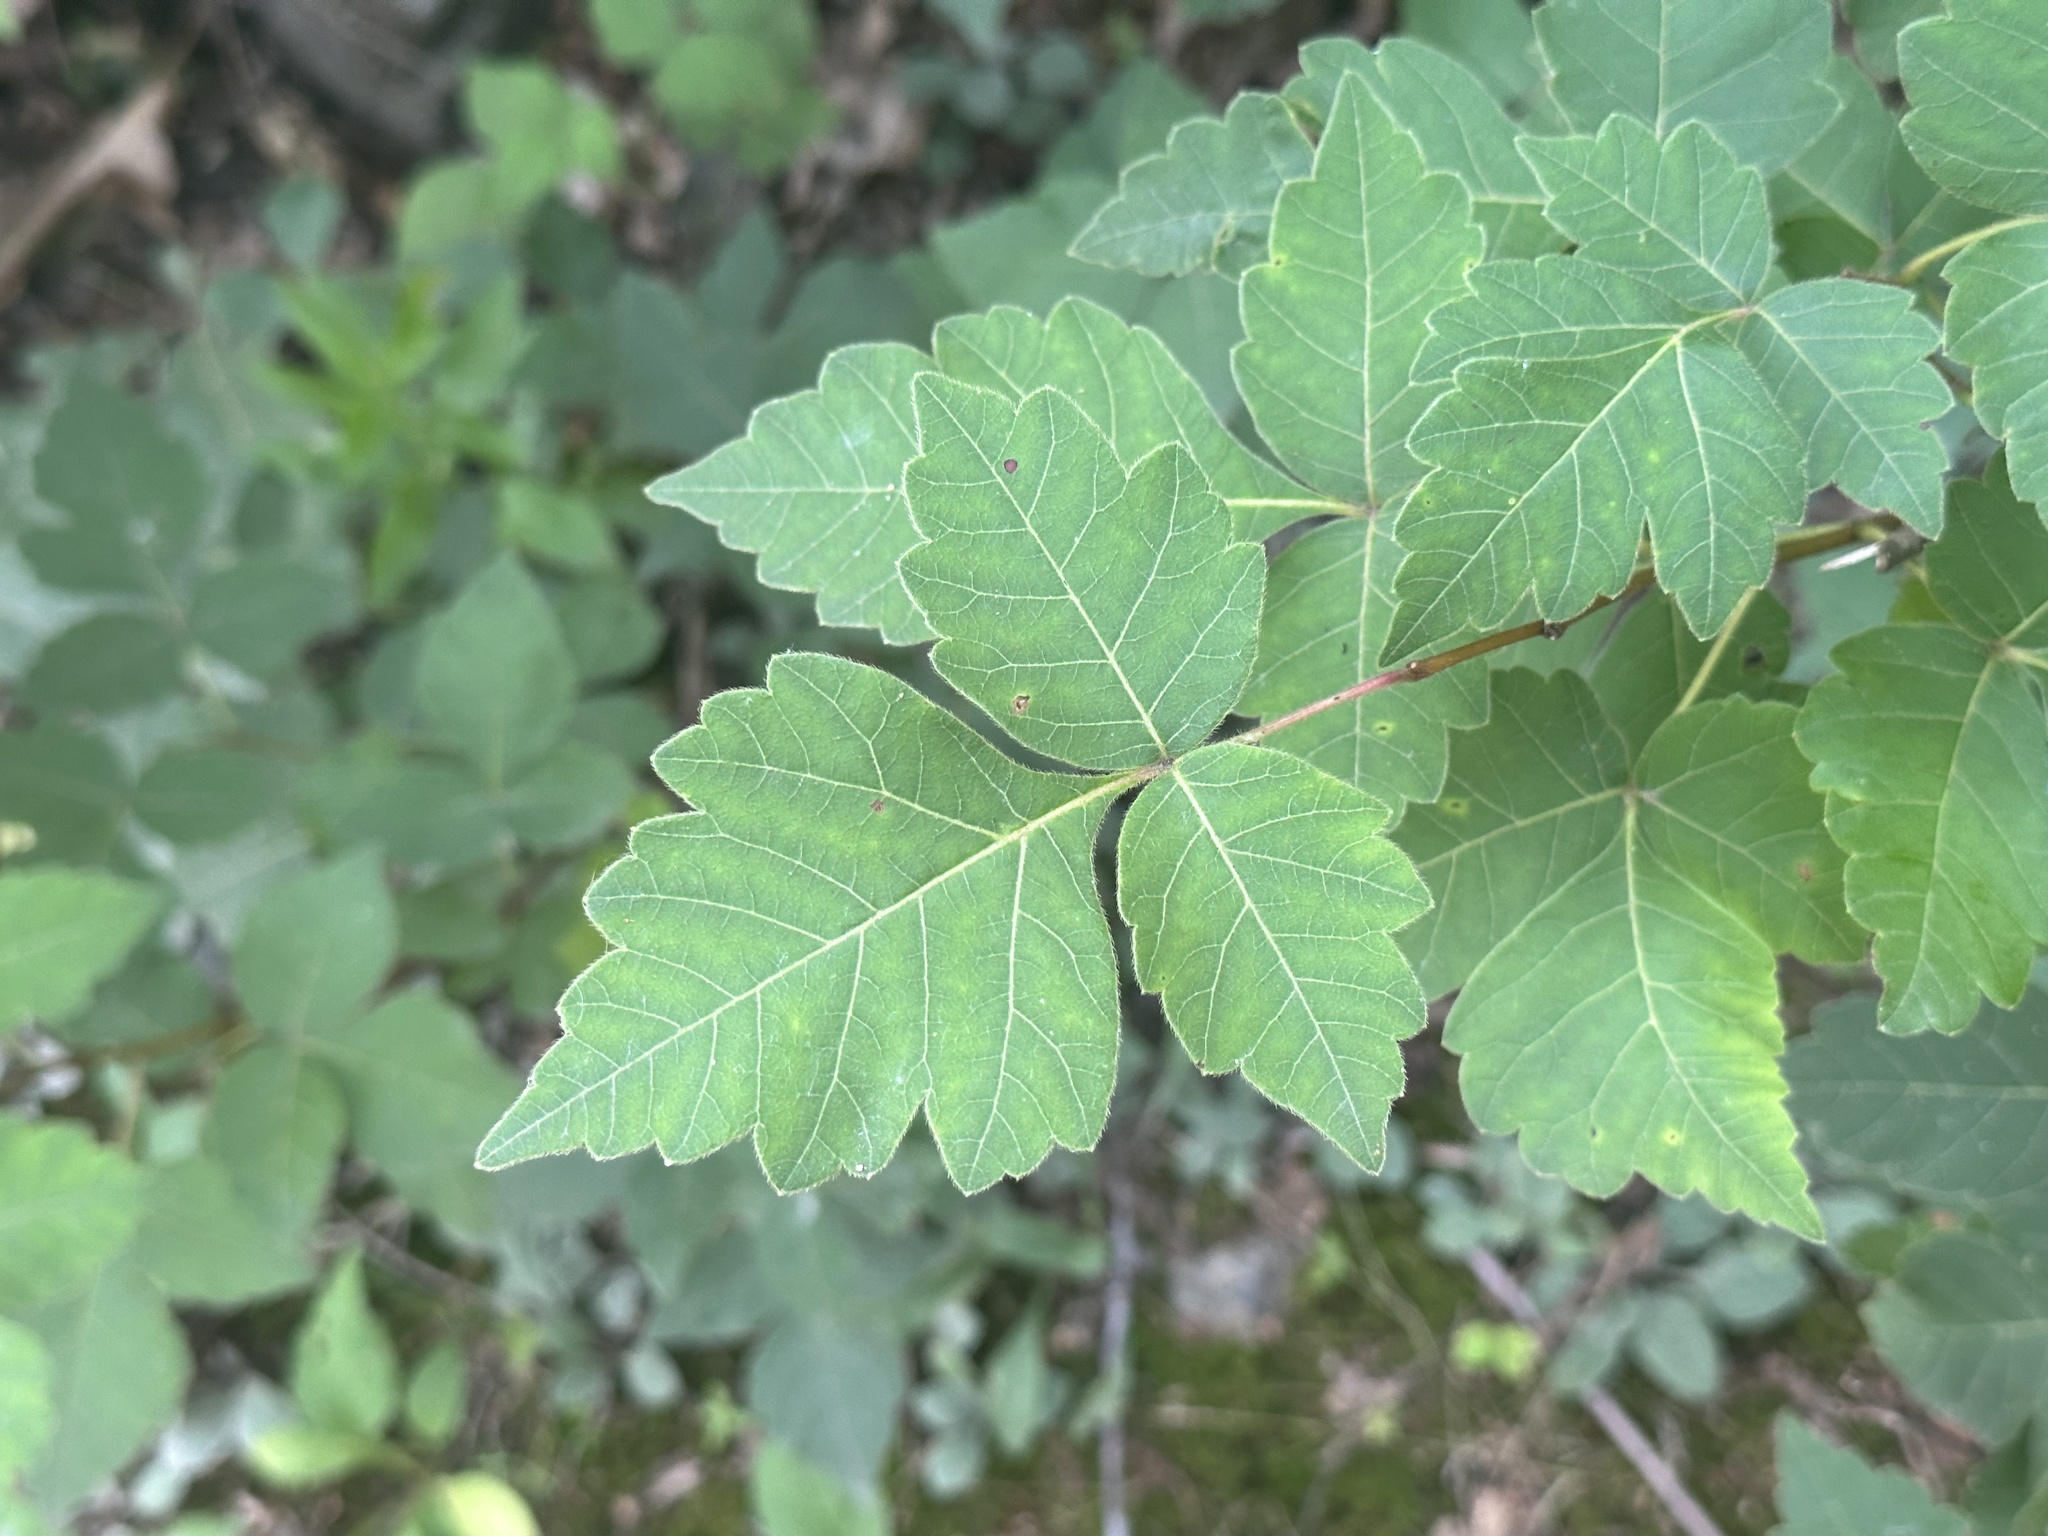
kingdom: Plantae
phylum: Tracheophyta
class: Magnoliopsida
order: Sapindales
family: Anacardiaceae
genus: Rhus
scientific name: Rhus aromatica
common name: Aromatic sumac
